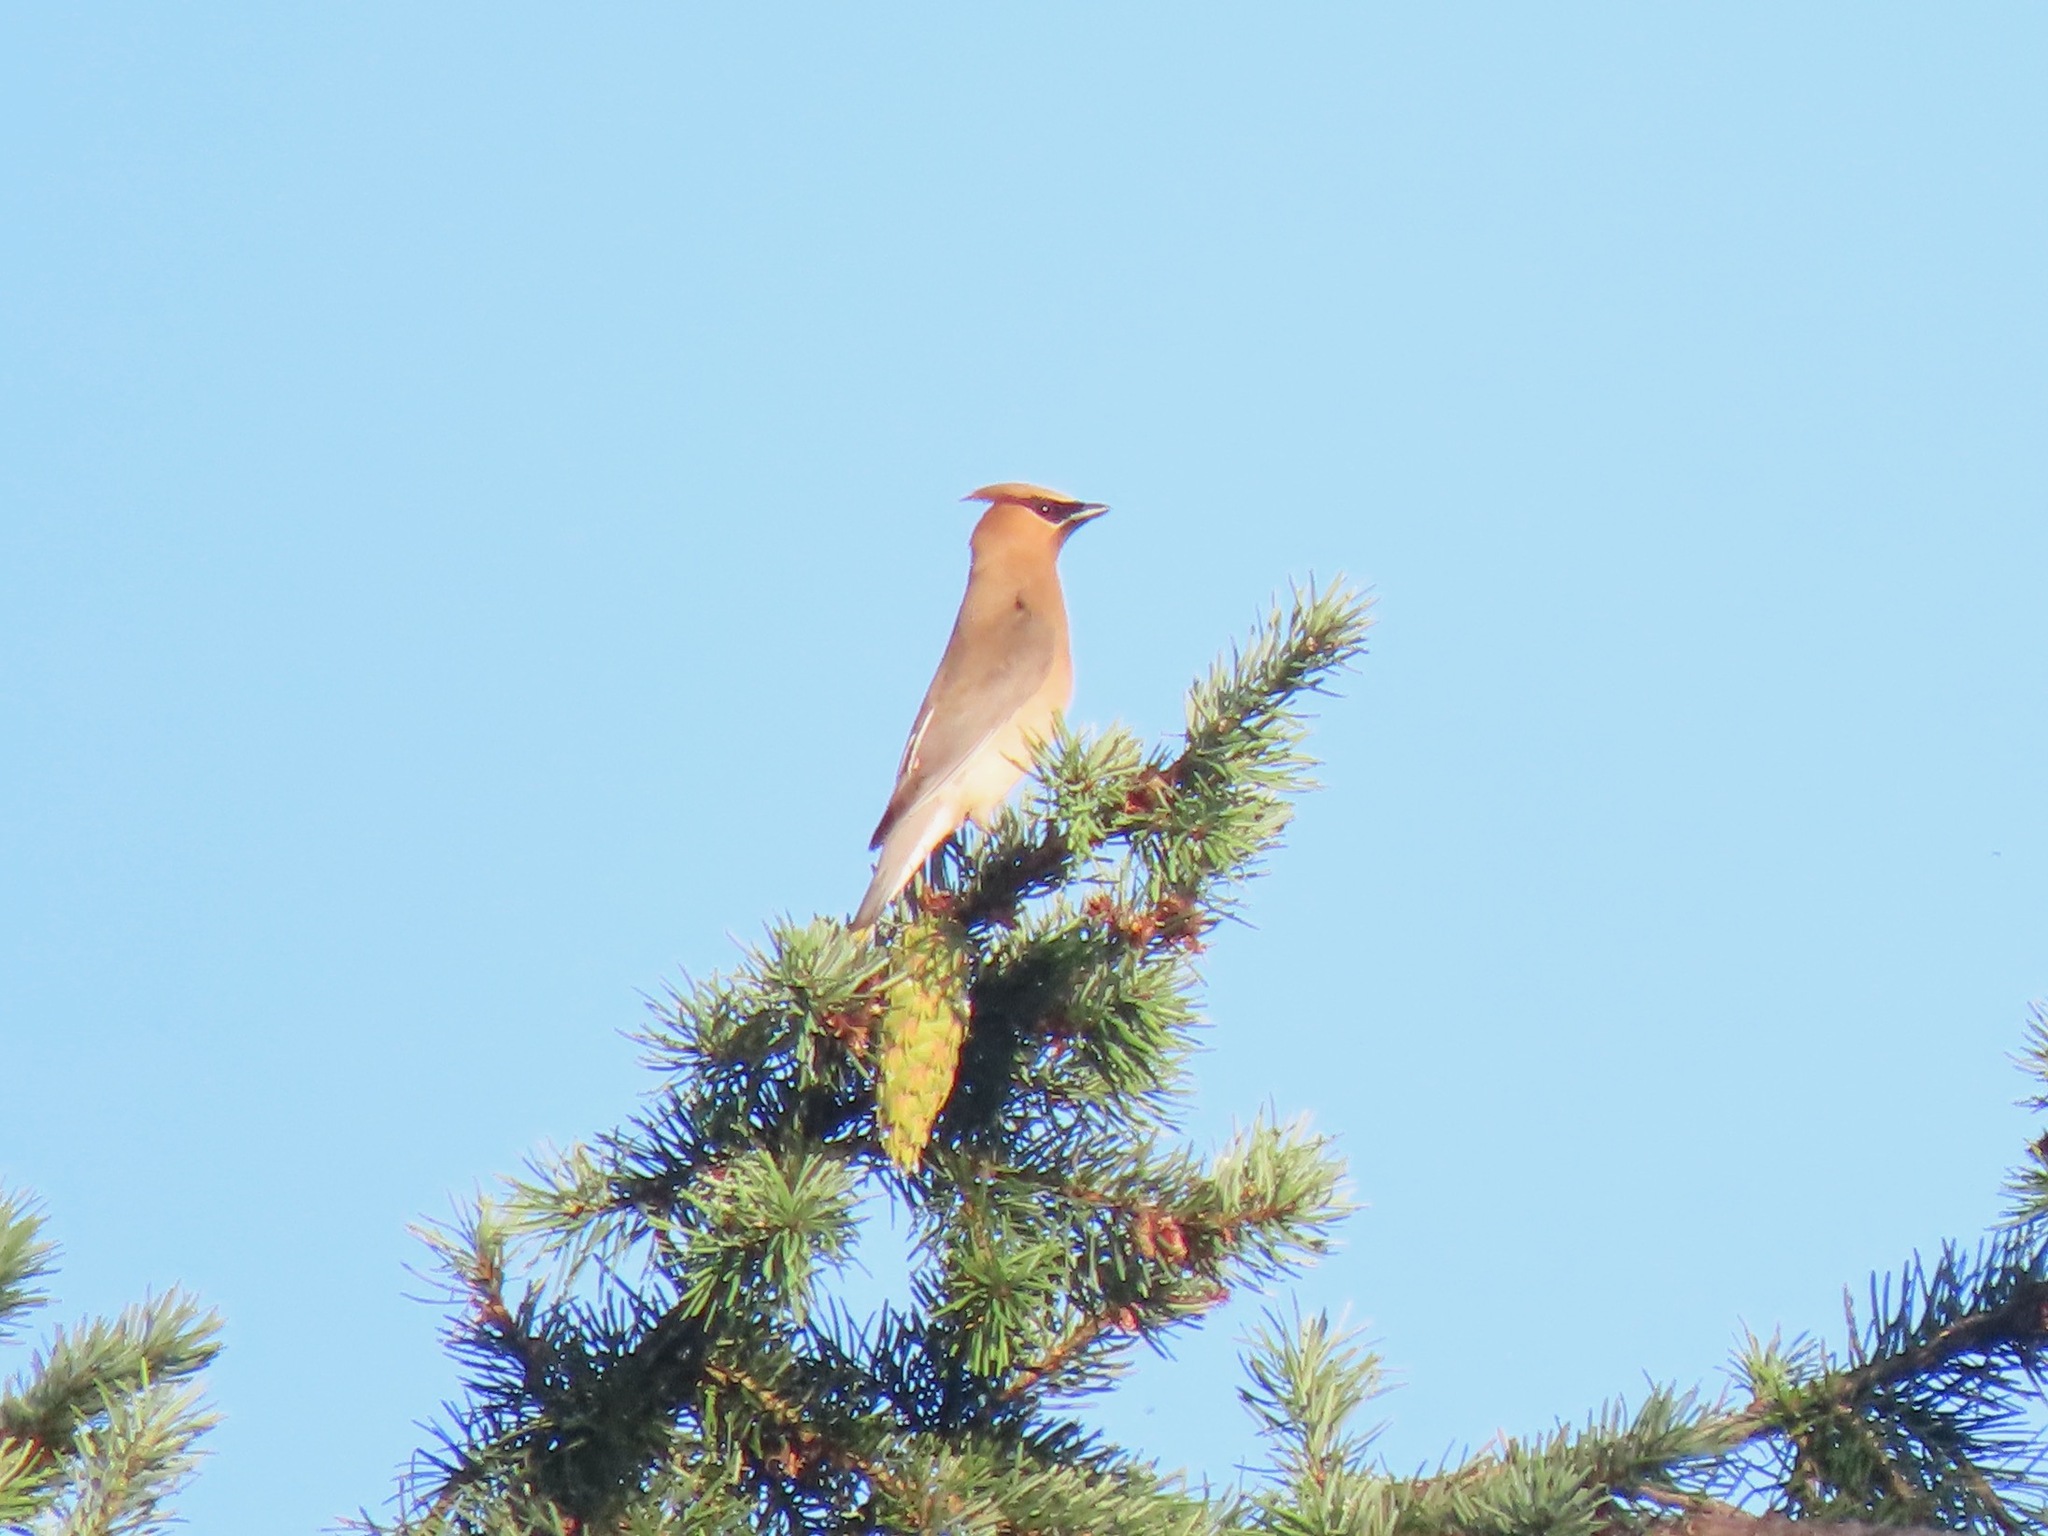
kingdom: Animalia
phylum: Chordata
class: Aves
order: Passeriformes
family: Bombycillidae
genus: Bombycilla
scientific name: Bombycilla cedrorum
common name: Cedar waxwing
